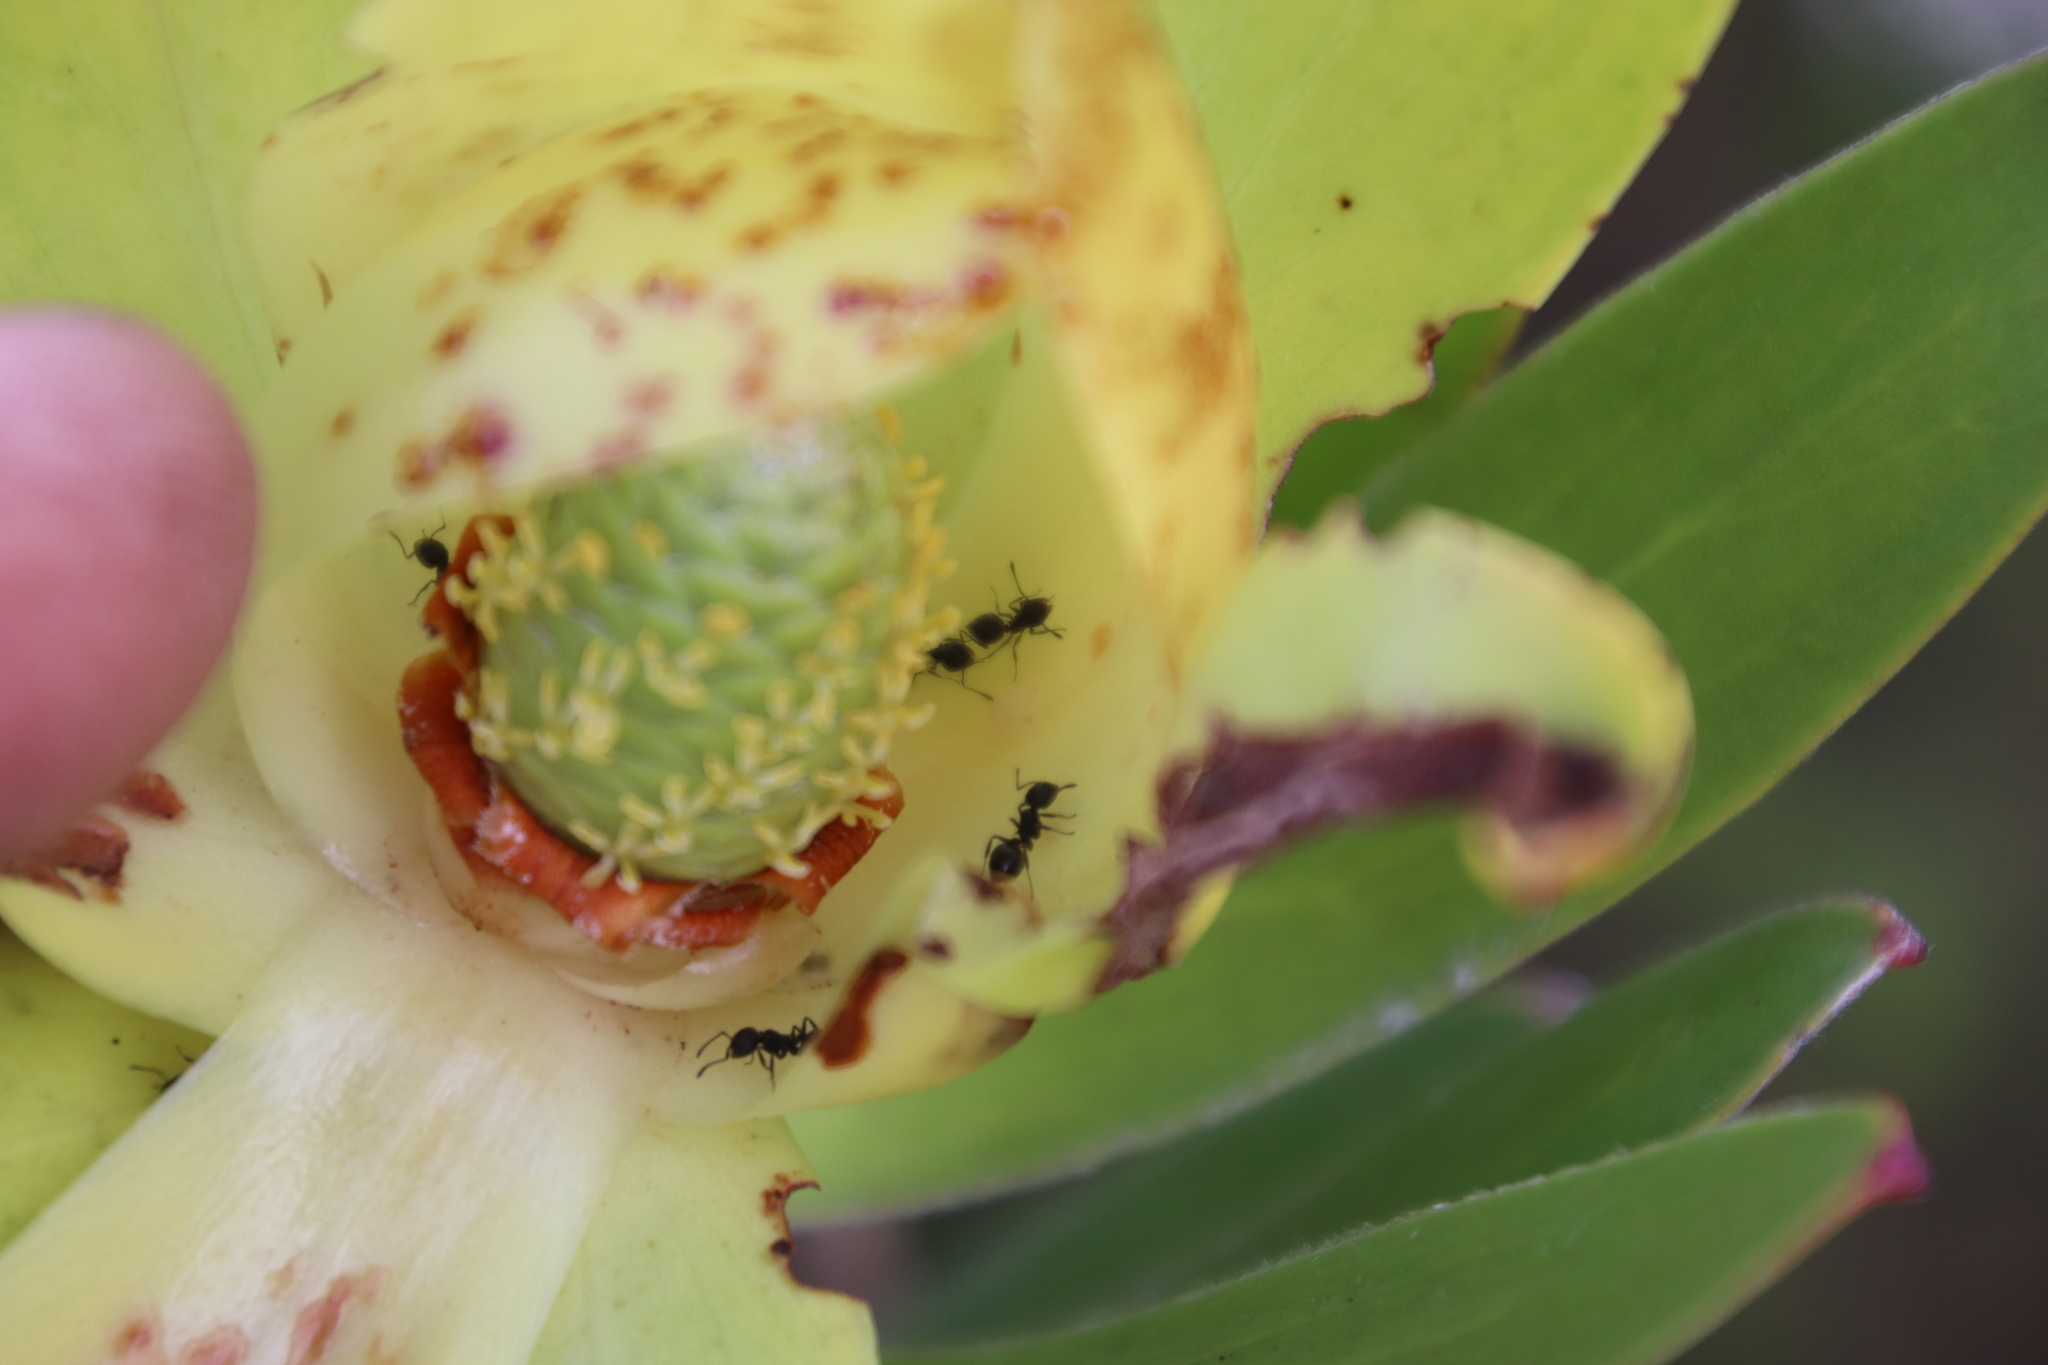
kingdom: Animalia
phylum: Arthropoda
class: Insecta
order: Hymenoptera
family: Formicidae
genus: Crematogaster
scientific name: Crematogaster peringueyi
